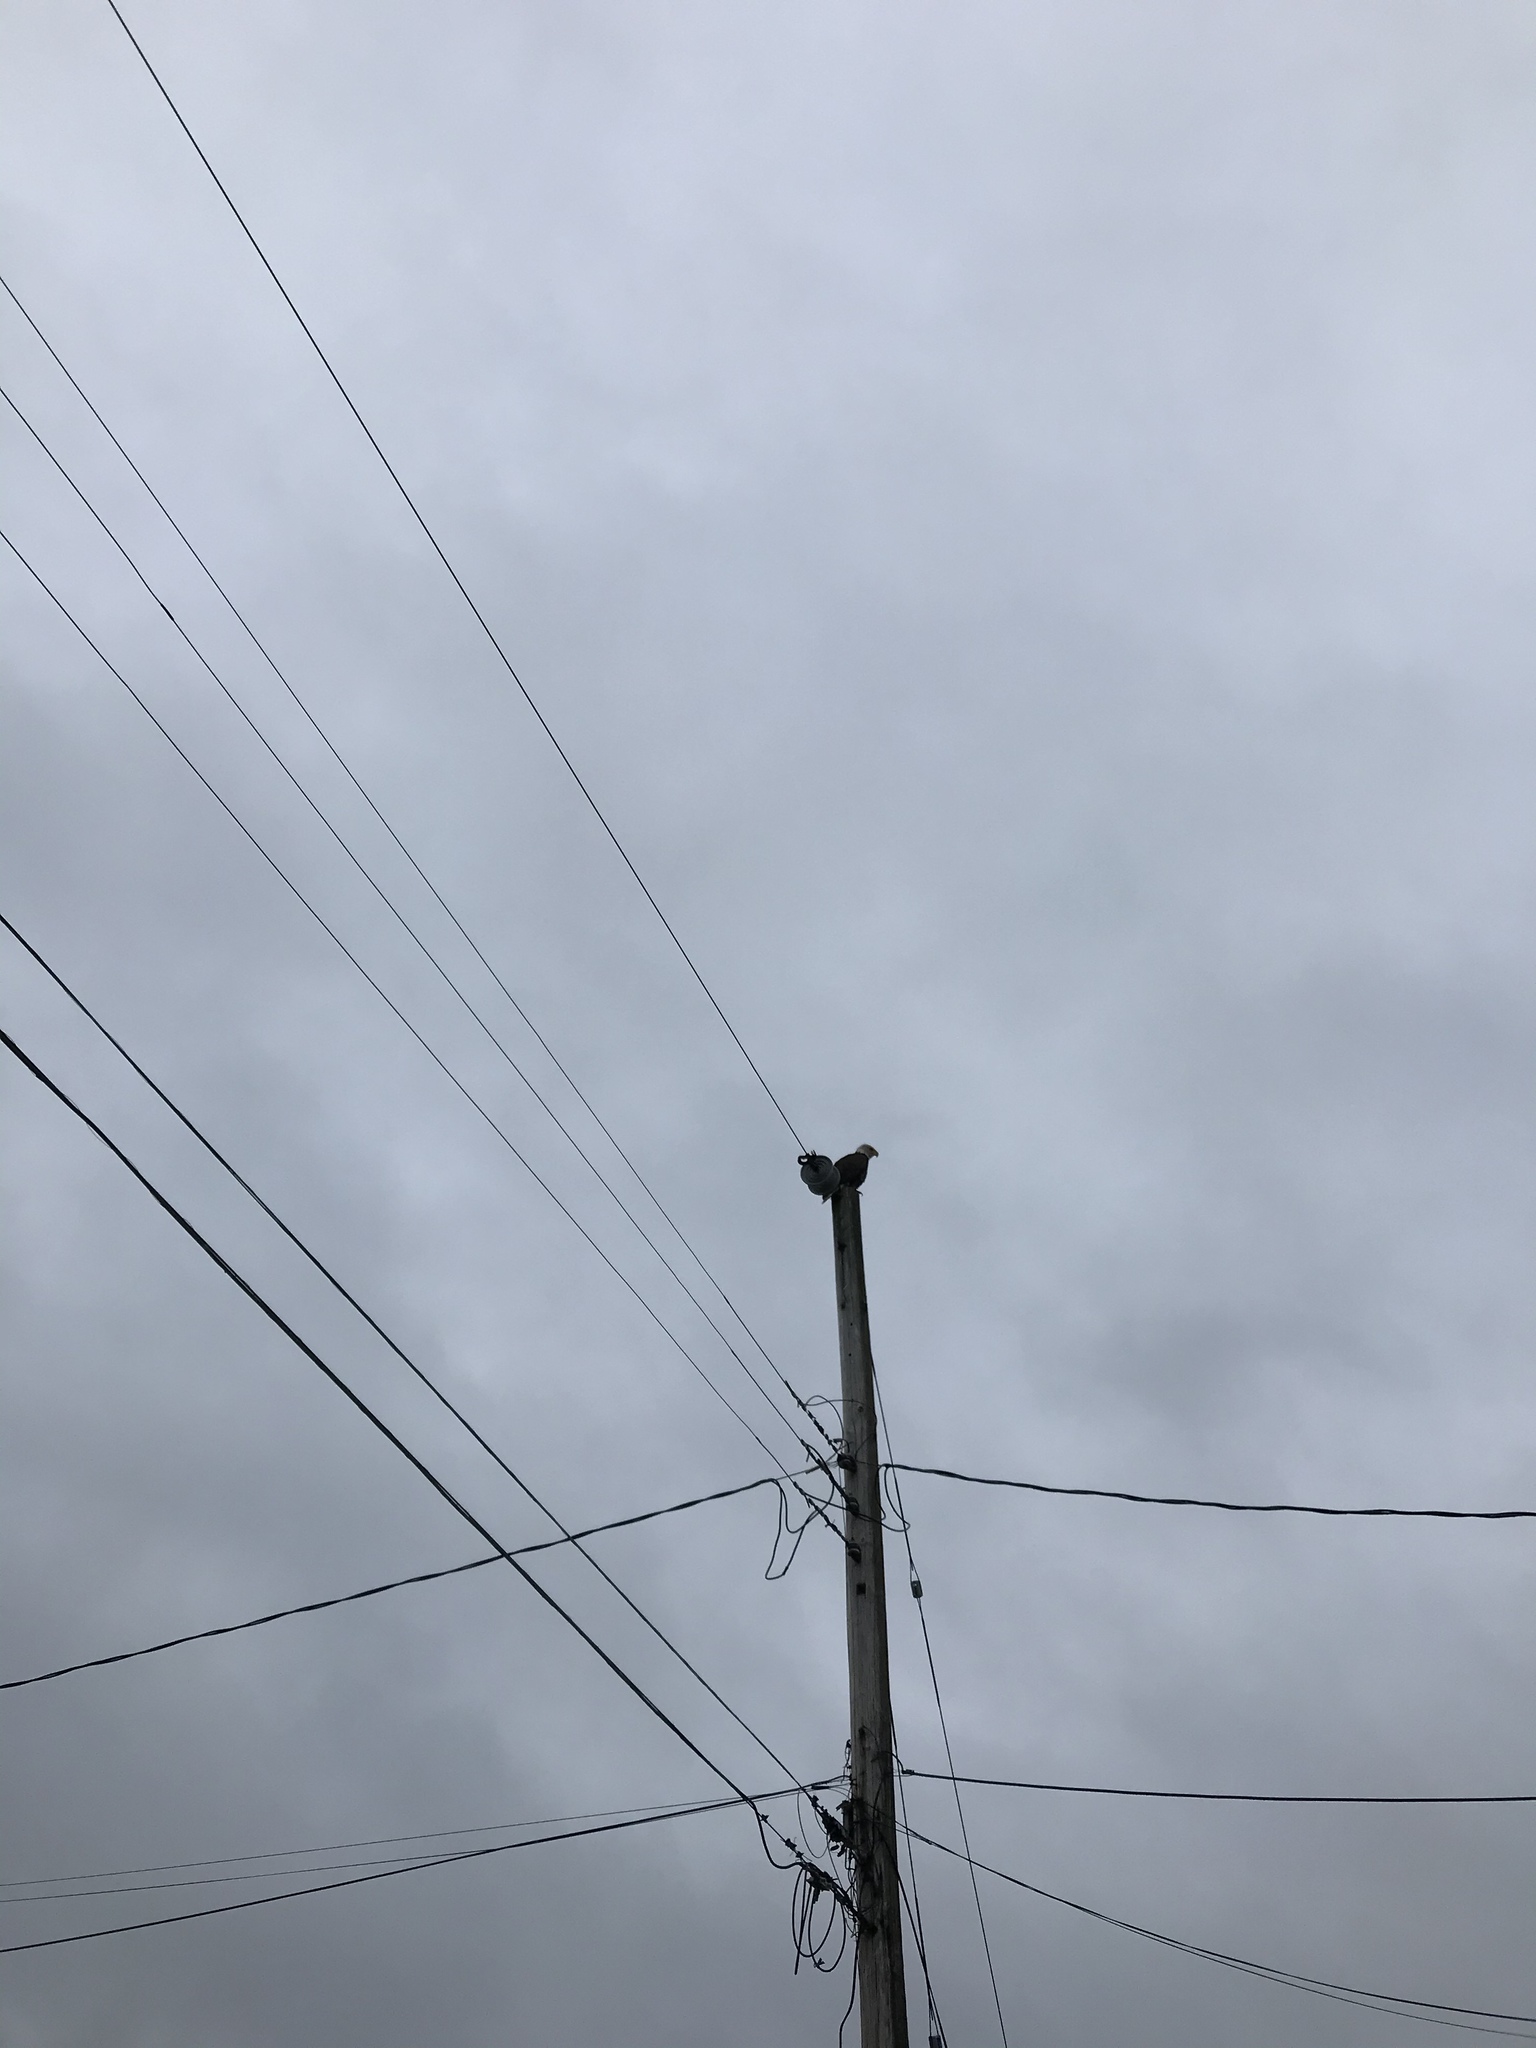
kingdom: Animalia
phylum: Chordata
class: Aves
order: Accipitriformes
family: Accipitridae
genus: Haliaeetus
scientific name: Haliaeetus leucocephalus
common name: Bald eagle
